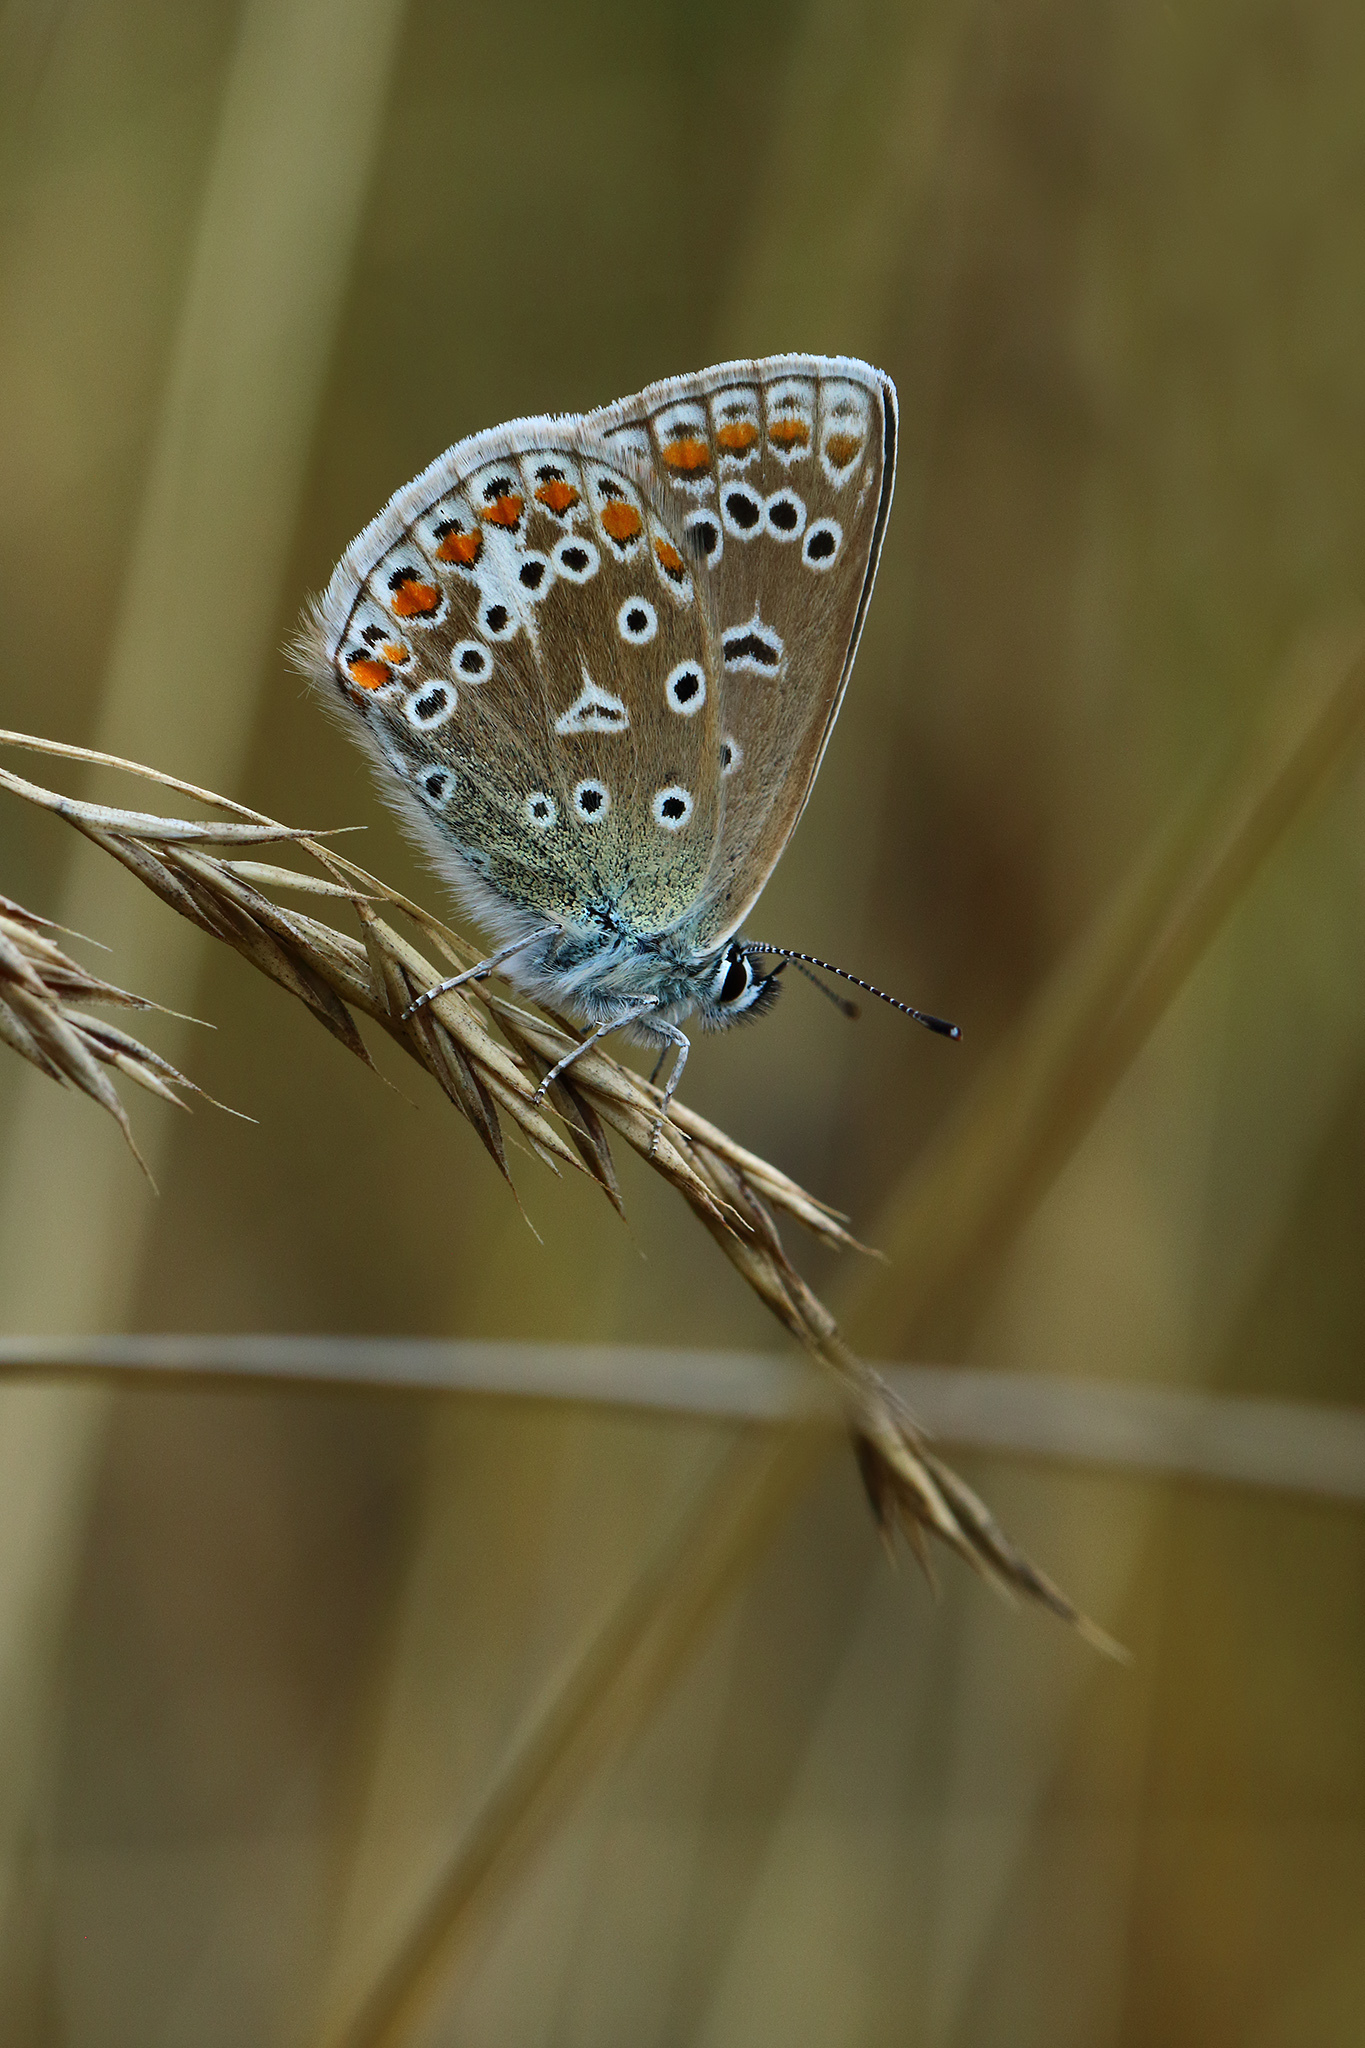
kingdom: Animalia
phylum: Arthropoda
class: Insecta
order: Lepidoptera
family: Lycaenidae
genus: Polyommatus
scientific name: Polyommatus icarus
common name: Common blue
